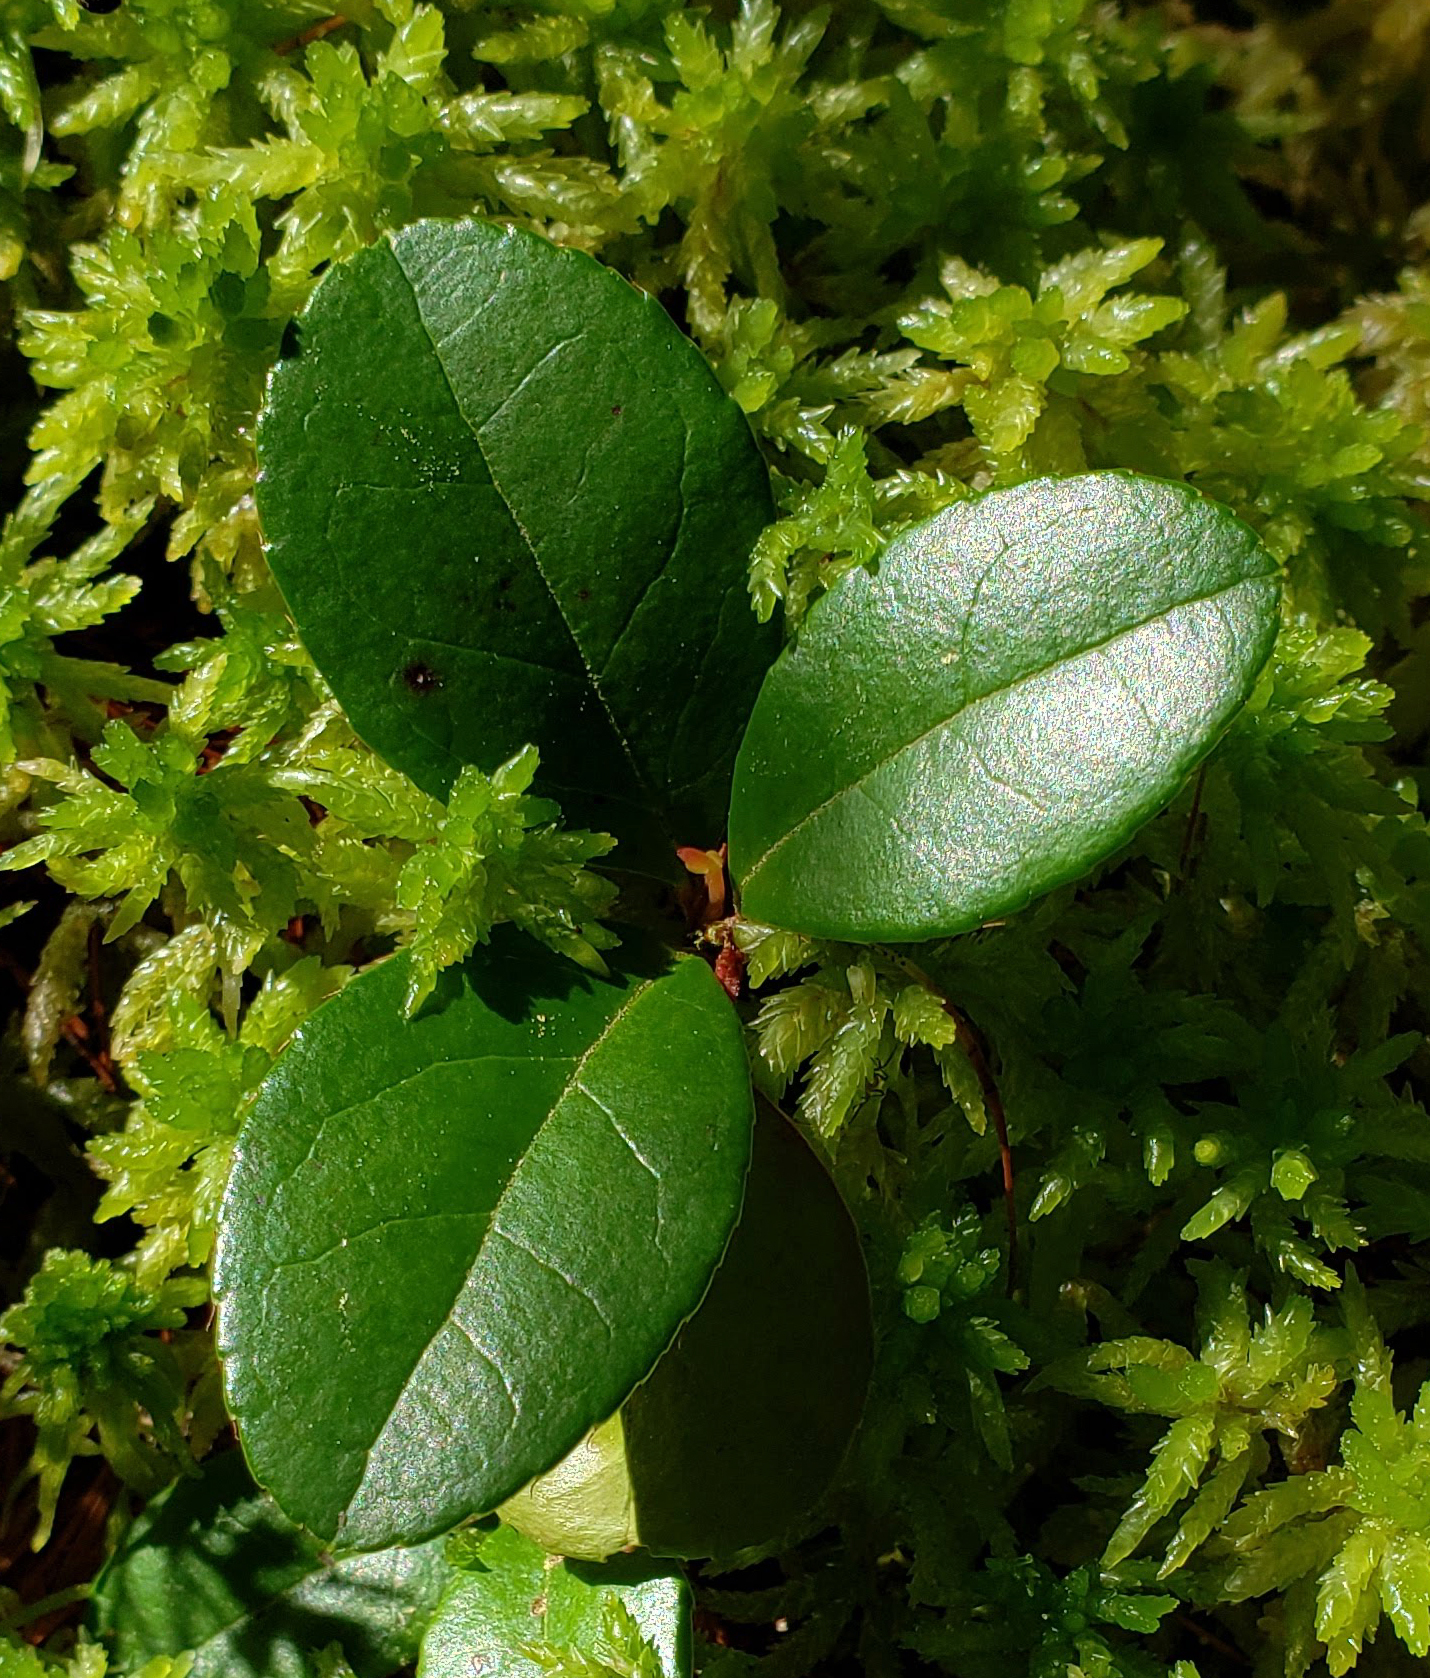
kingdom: Plantae
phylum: Tracheophyta
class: Magnoliopsida
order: Ericales
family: Ericaceae
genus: Gaultheria
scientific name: Gaultheria procumbens
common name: Checkerberry
